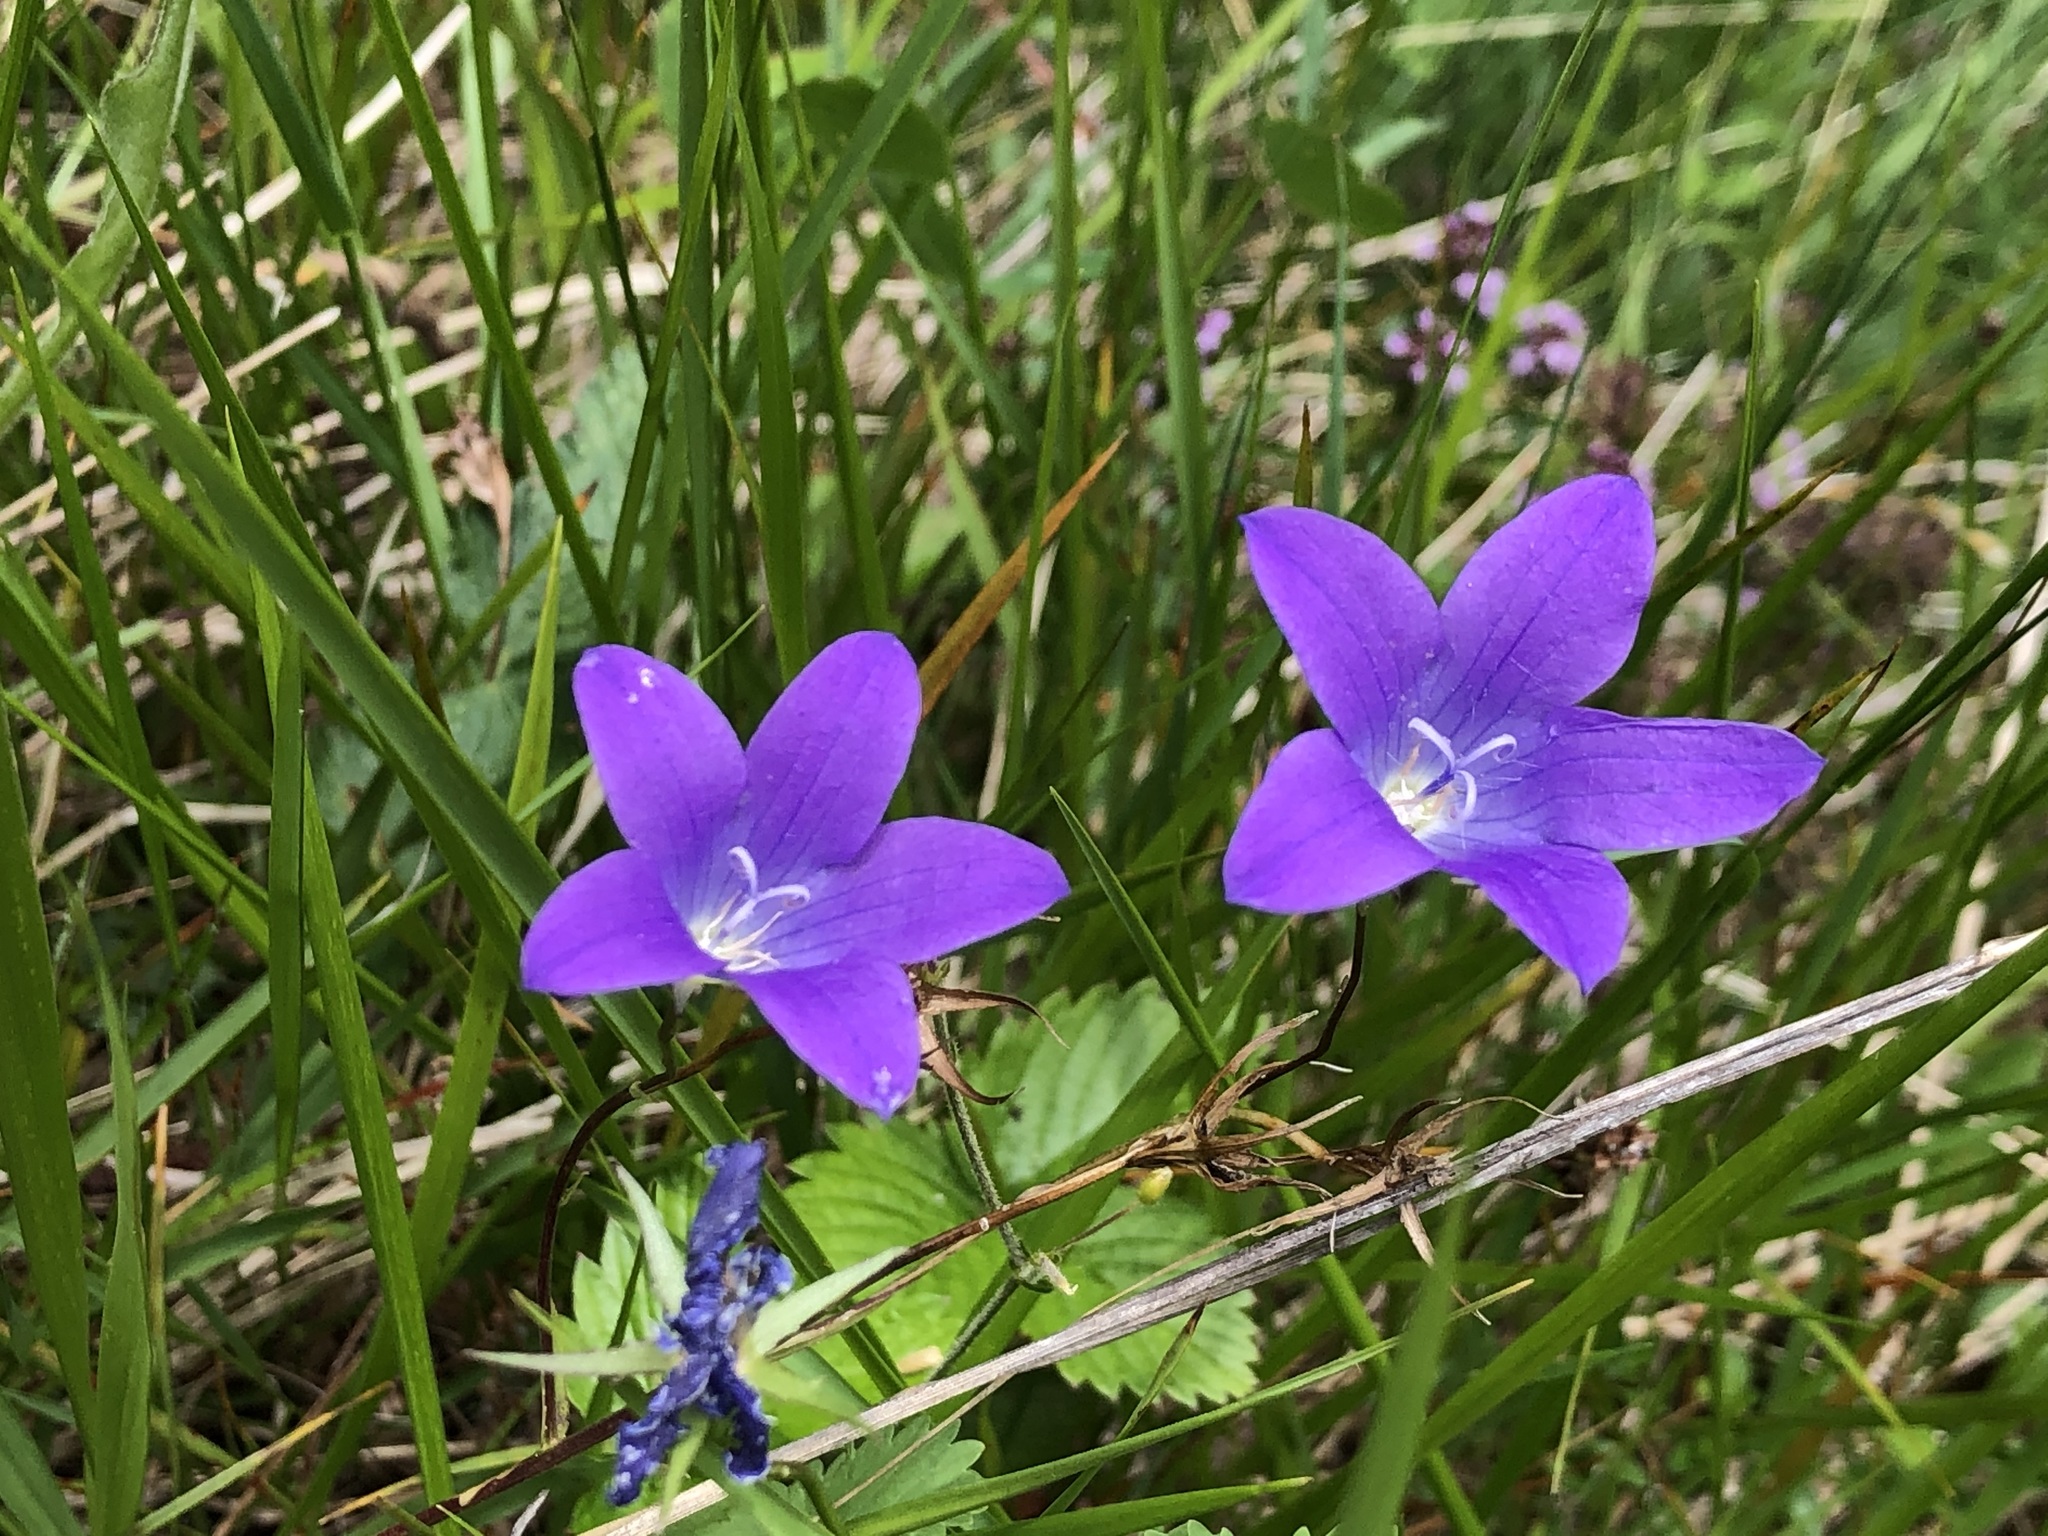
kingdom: Plantae
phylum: Tracheophyta
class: Magnoliopsida
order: Asterales
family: Campanulaceae
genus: Campanula
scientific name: Campanula patula
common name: Spreading bellflower
